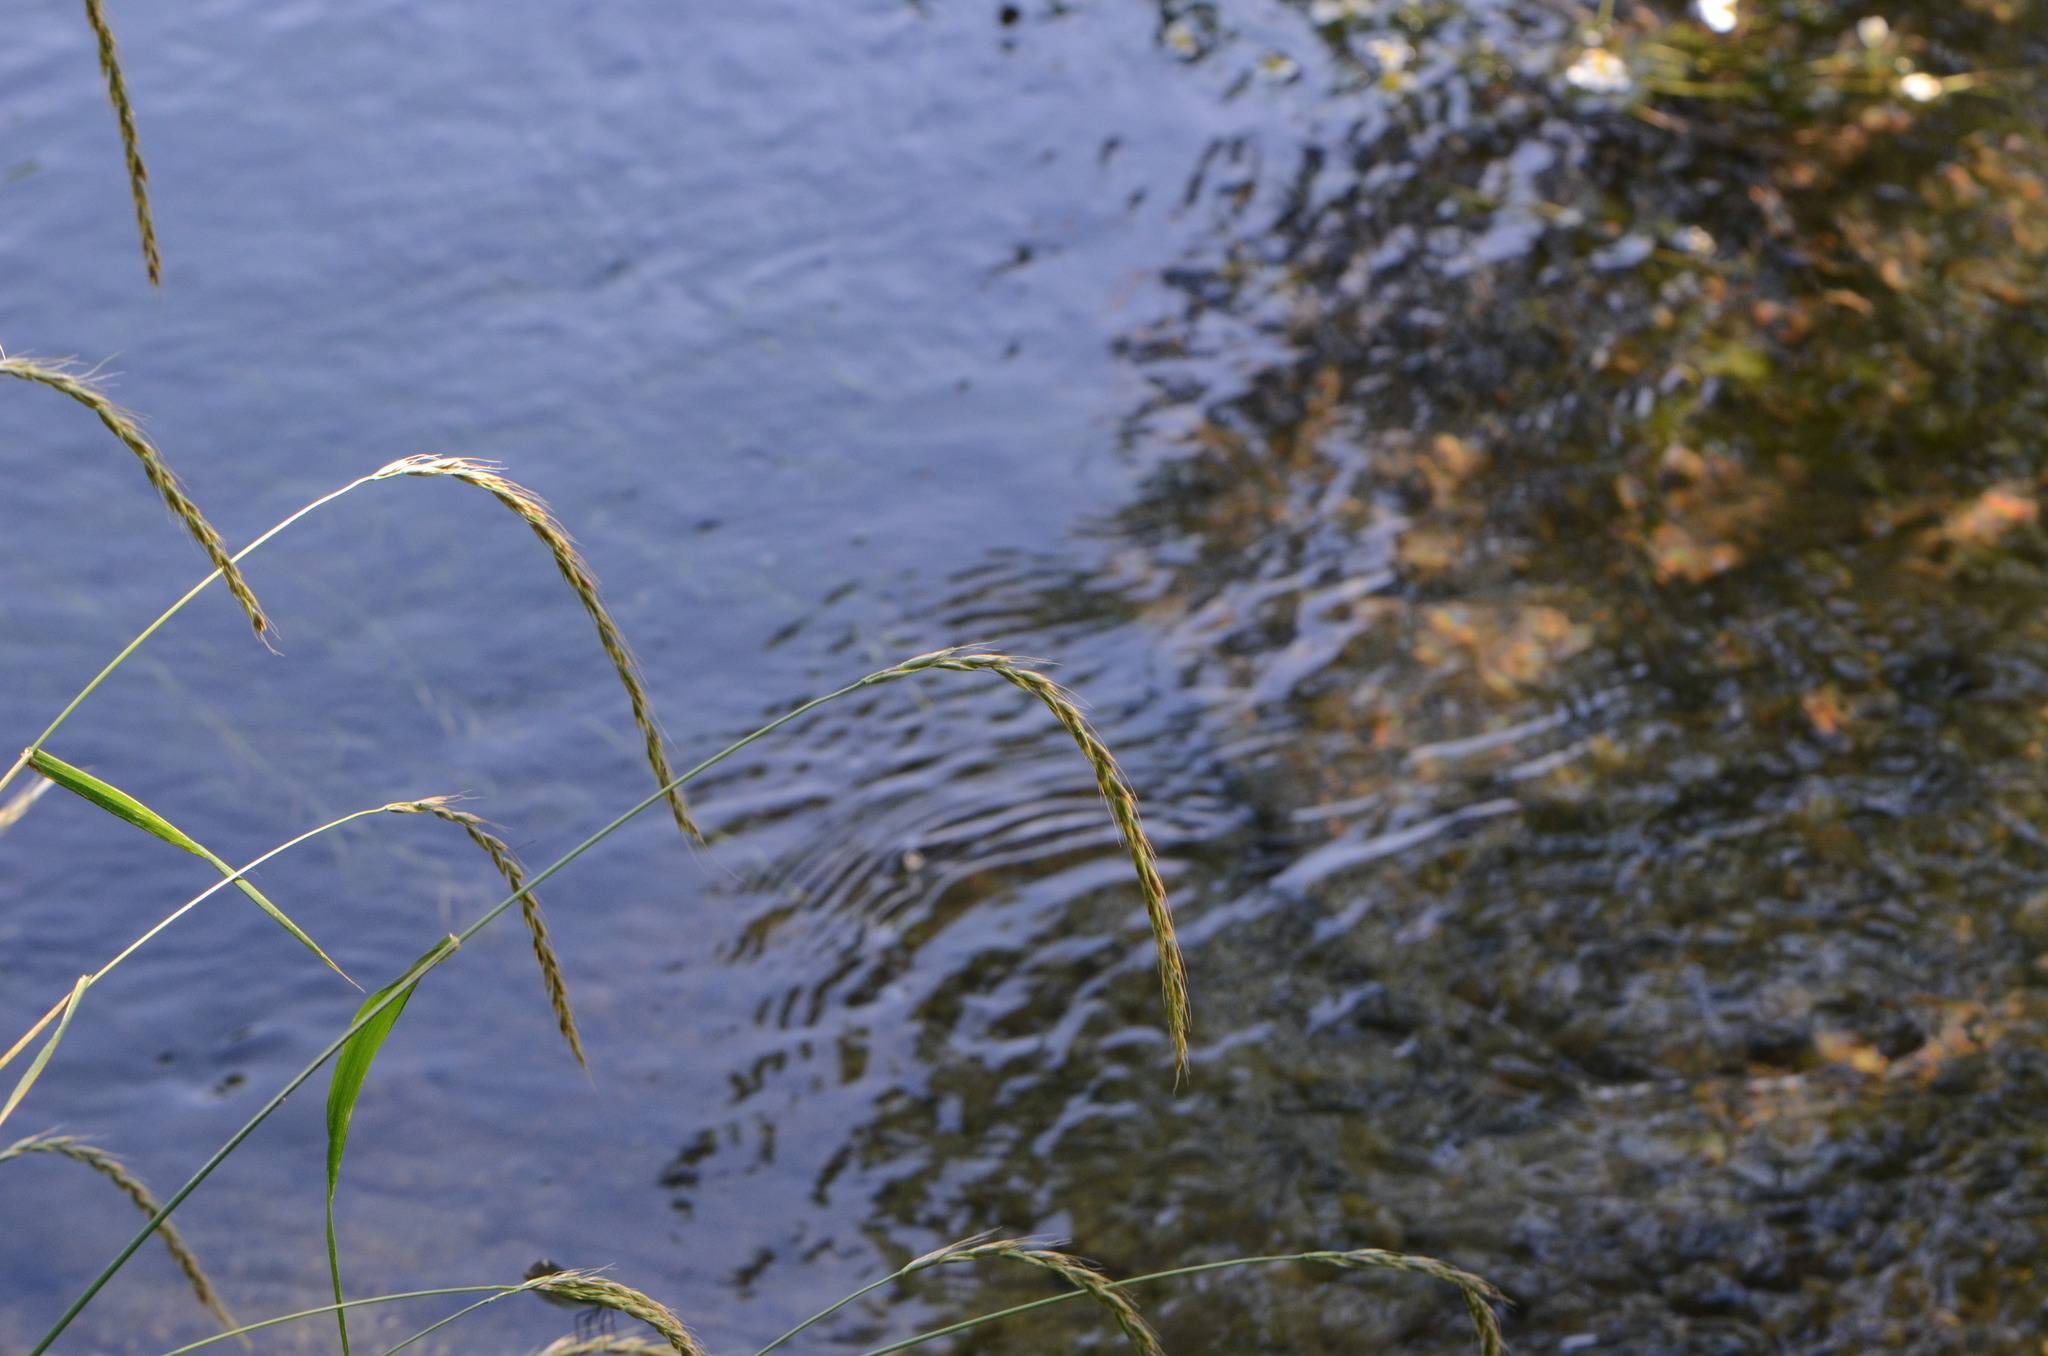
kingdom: Plantae
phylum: Tracheophyta
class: Liliopsida
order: Poales
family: Poaceae
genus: Elymus
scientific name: Elymus caninus
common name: Bearded couch
